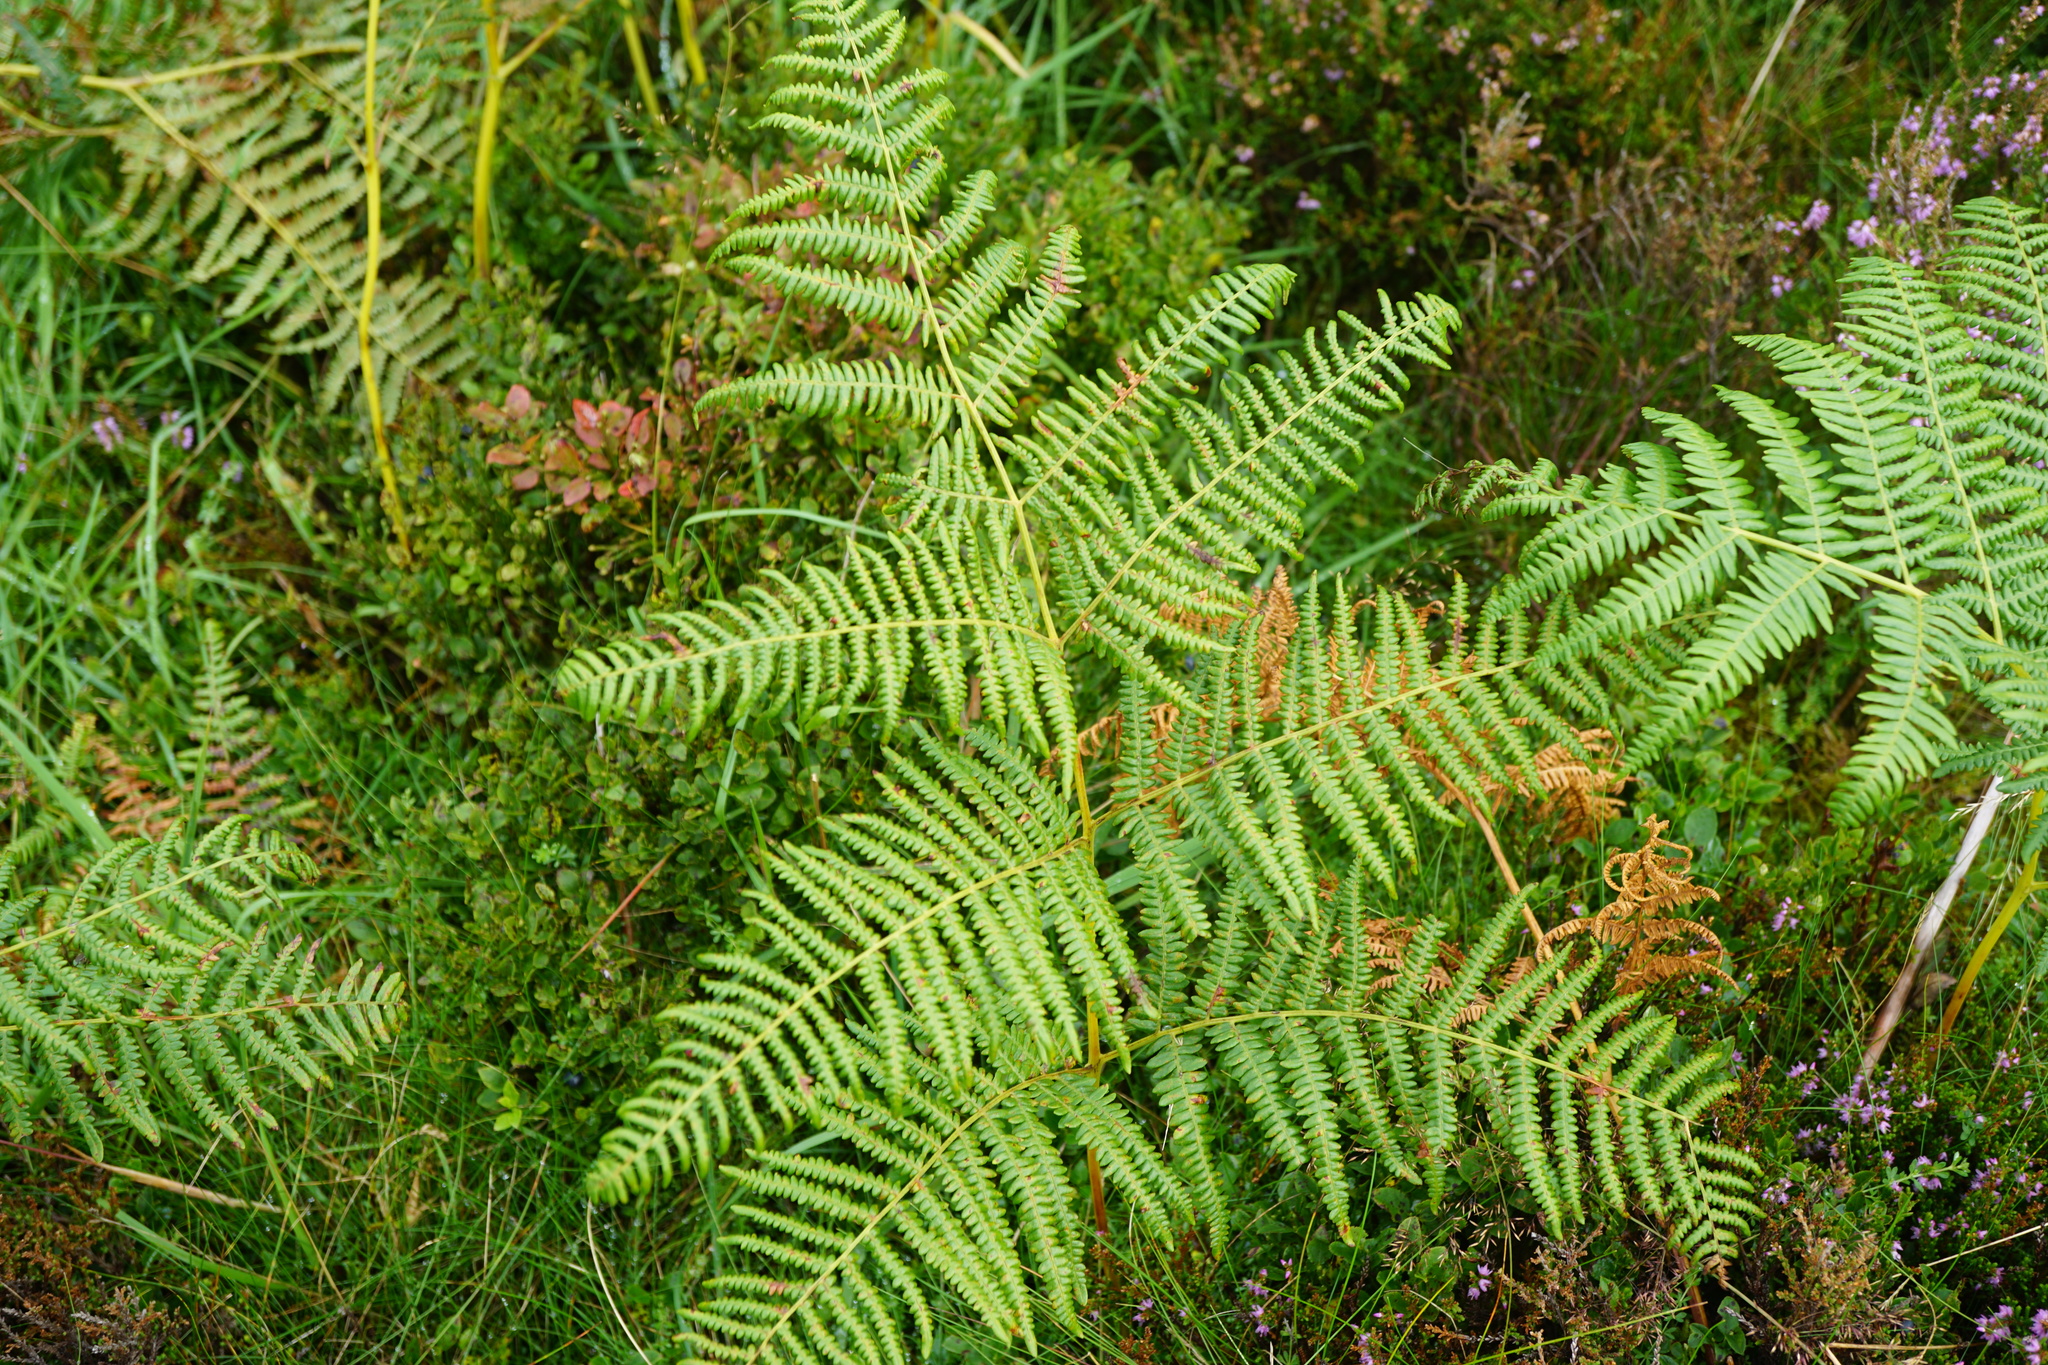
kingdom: Plantae
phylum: Tracheophyta
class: Polypodiopsida
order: Polypodiales
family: Dennstaedtiaceae
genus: Pteridium
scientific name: Pteridium aquilinum
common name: Bracken
